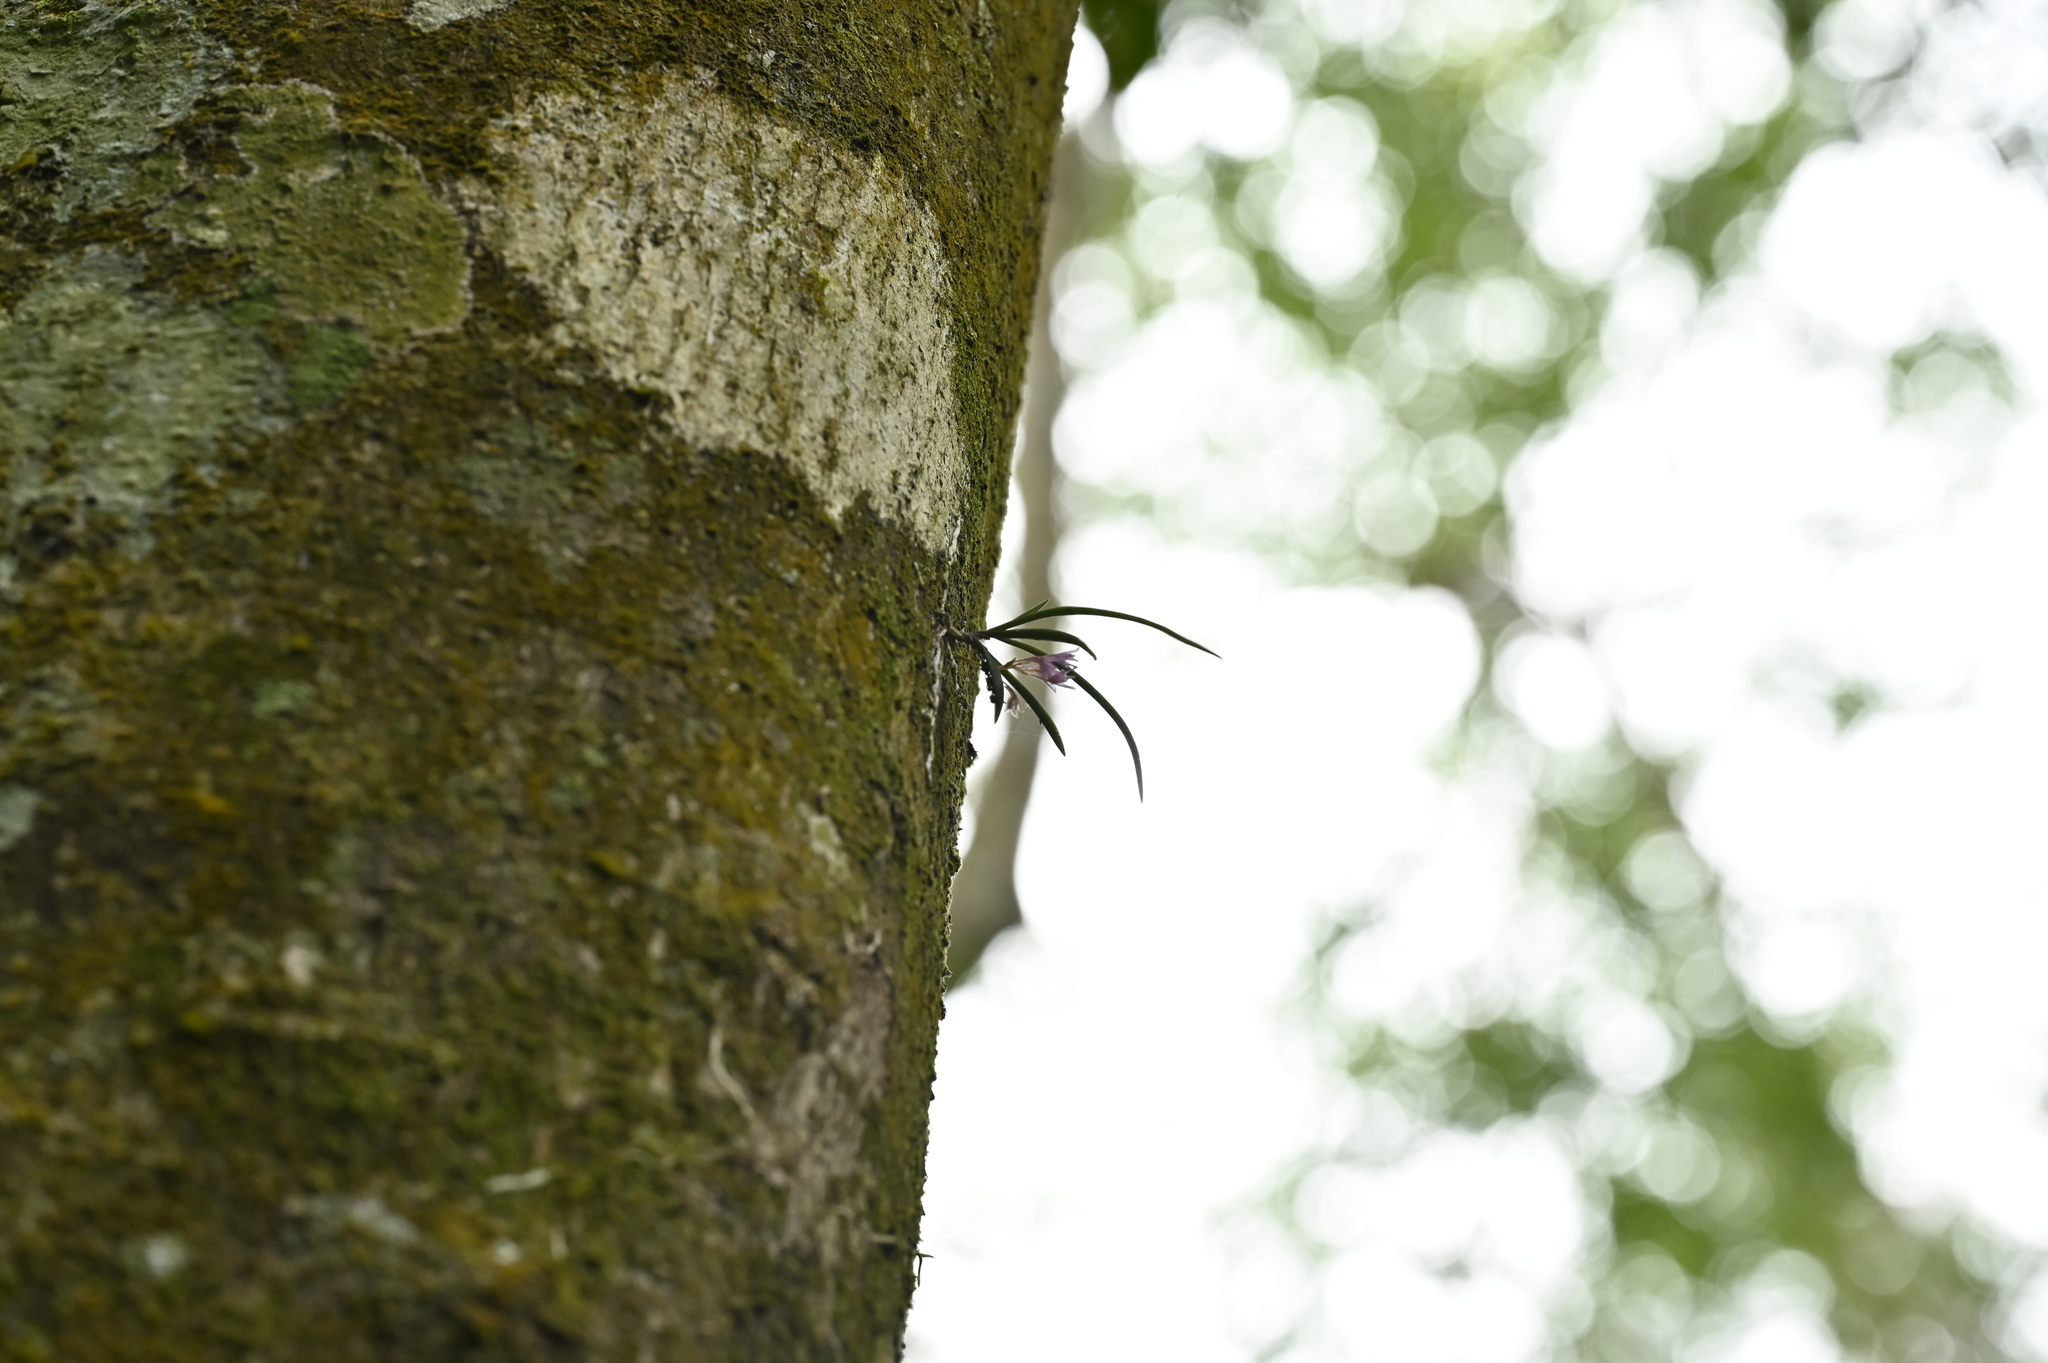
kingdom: Plantae
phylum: Tracheophyta
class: Liliopsida
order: Asparagales
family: Orchidaceae
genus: Holcoglossum
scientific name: Holcoglossum pumilum
